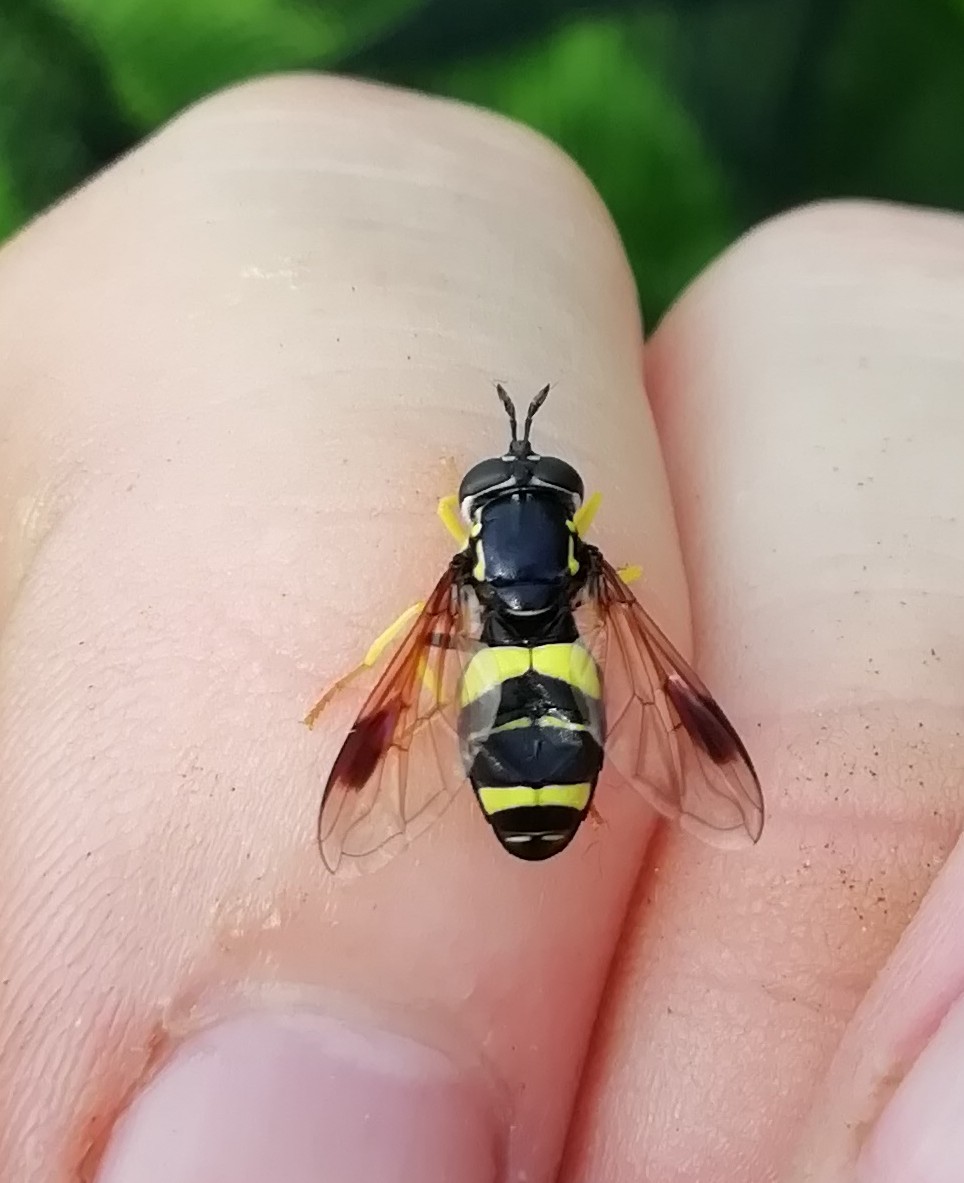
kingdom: Animalia
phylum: Arthropoda
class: Insecta
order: Diptera
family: Syrphidae
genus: Chrysotoxum
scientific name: Chrysotoxum bicincta
